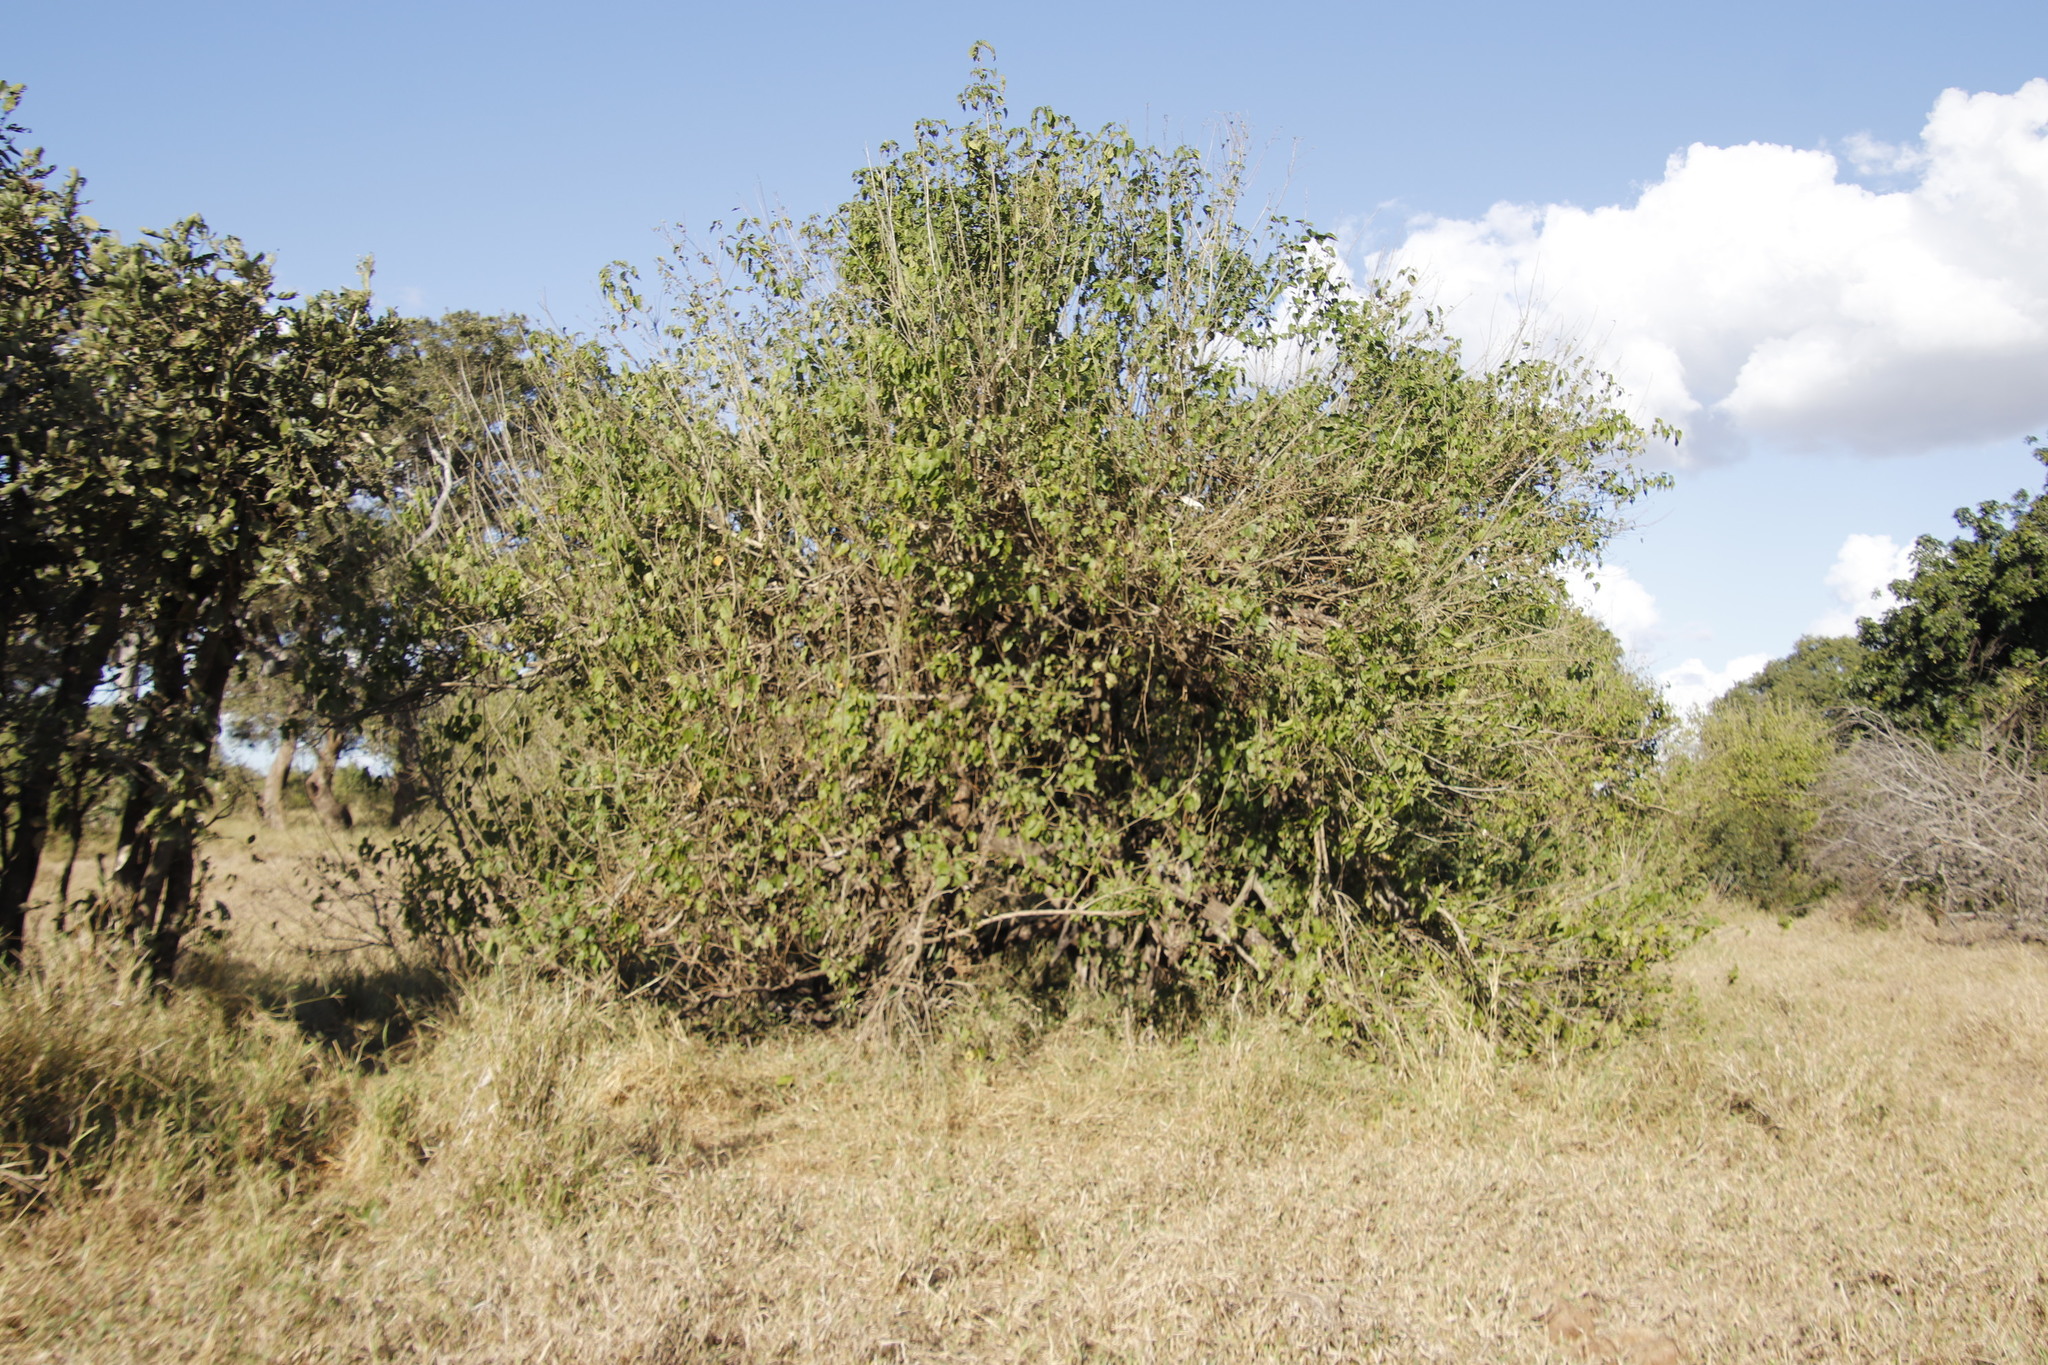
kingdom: Plantae
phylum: Tracheophyta
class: Magnoliopsida
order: Malpighiales
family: Euphorbiaceae
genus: Croton
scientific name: Croton megalobotrys
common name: Large fever berry
